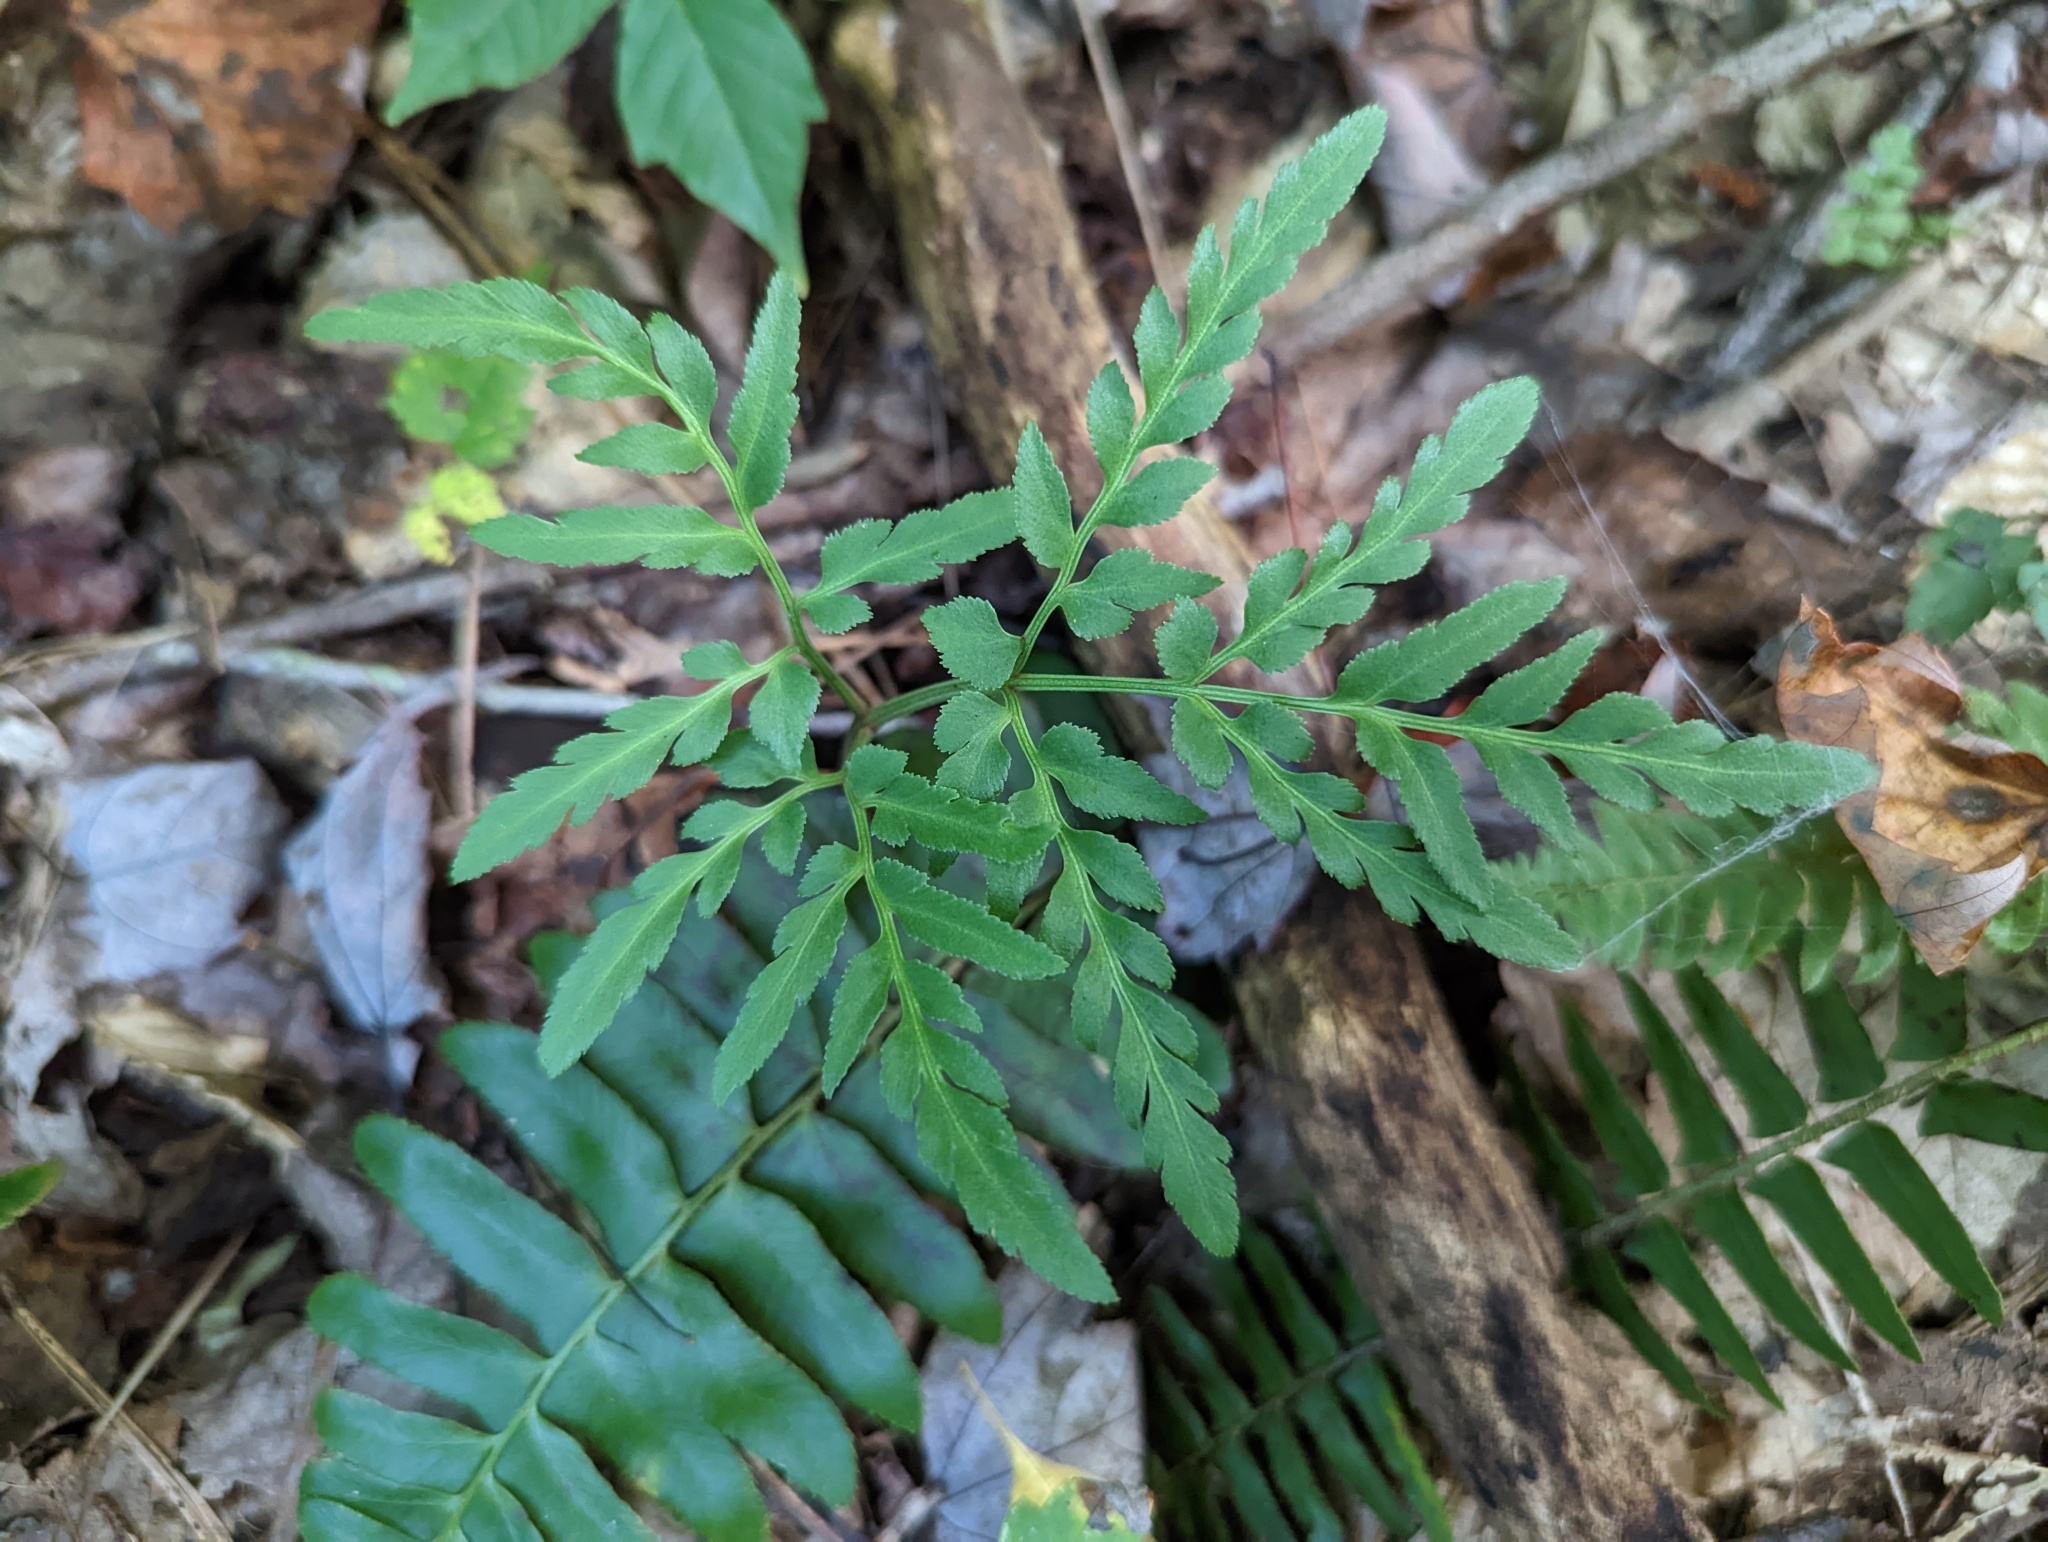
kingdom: Plantae
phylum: Tracheophyta
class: Polypodiopsida
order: Ophioglossales
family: Ophioglossaceae
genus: Sceptridium
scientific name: Sceptridium dissectum
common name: Cut-leaved grapefern
